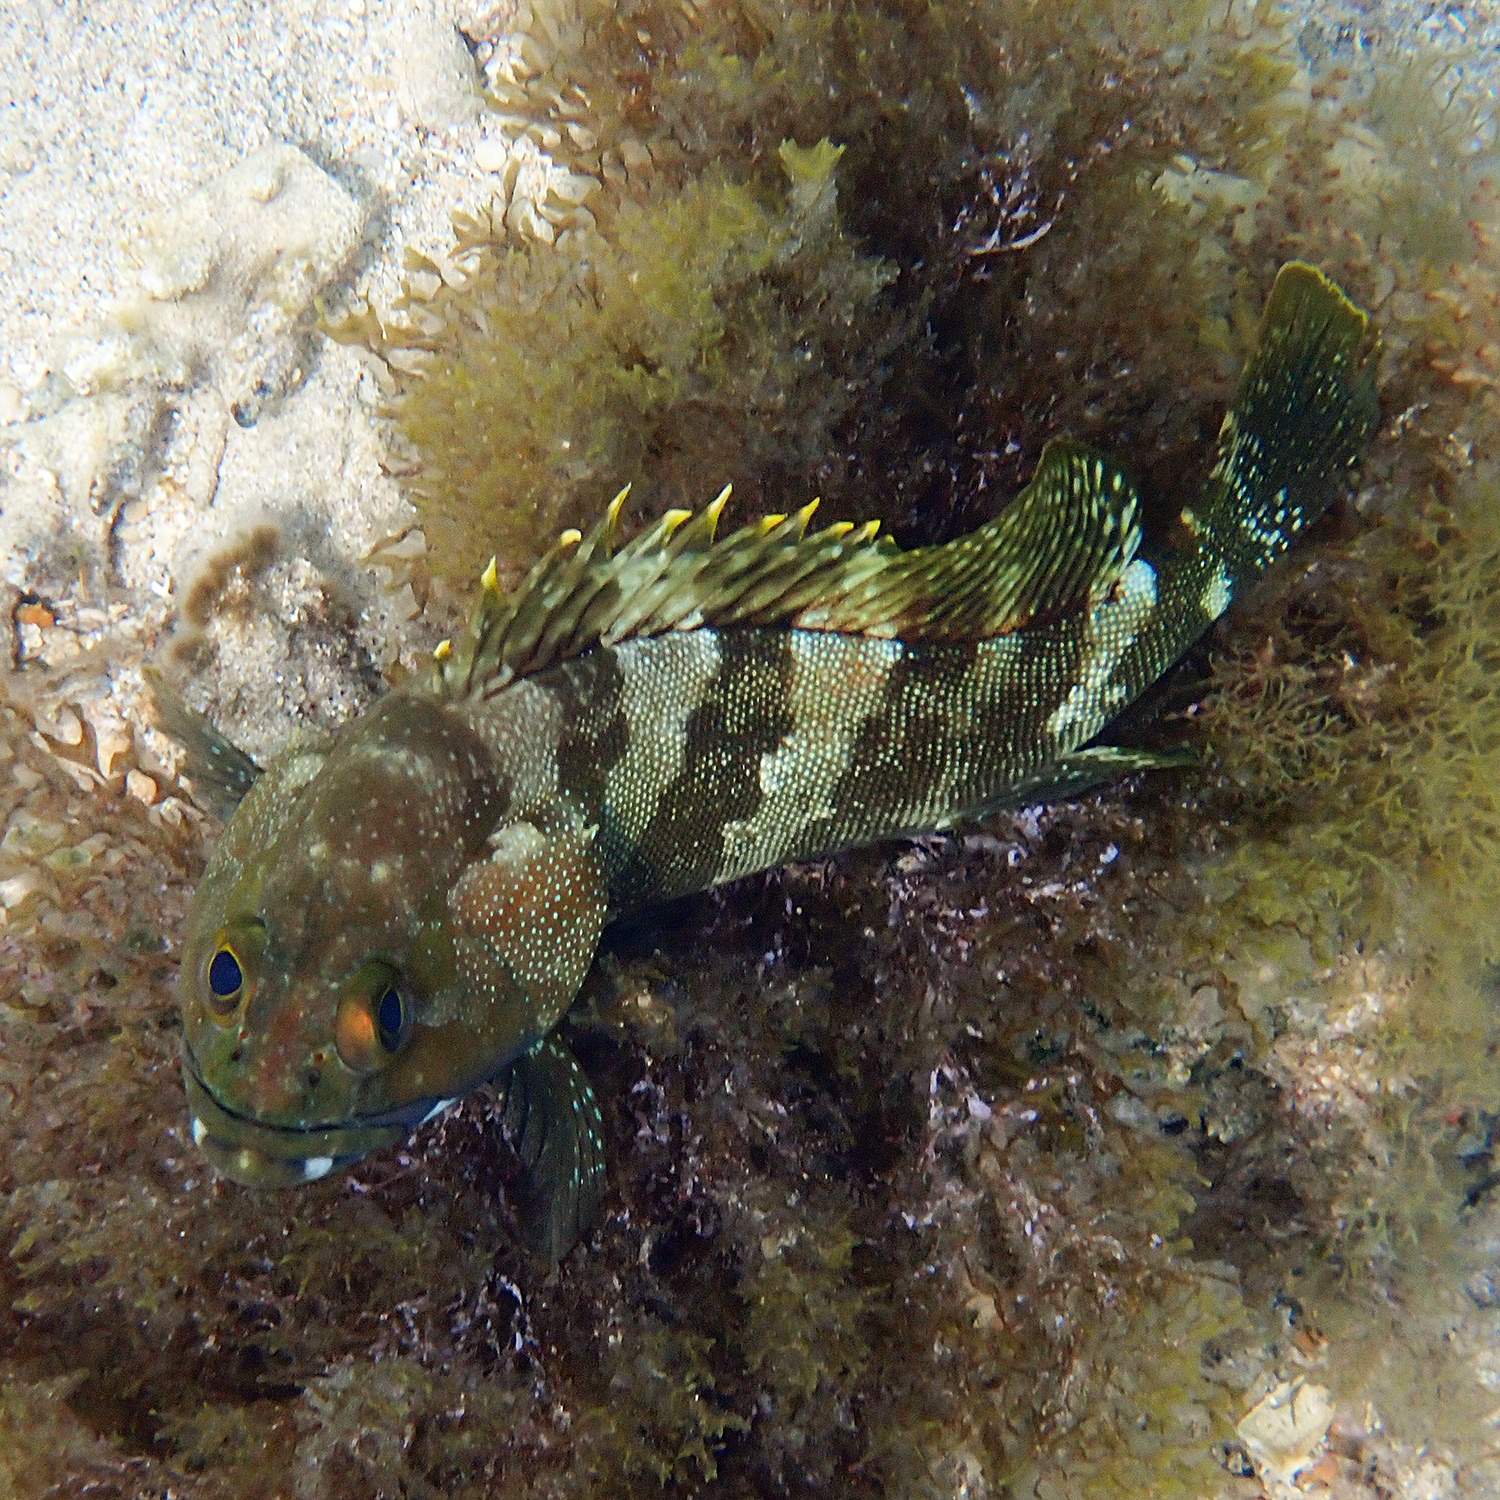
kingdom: Animalia
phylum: Chordata
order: Perciformes
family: Serranidae
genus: Epinephelus
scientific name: Epinephelus rivulatus
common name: Halfmoon grouper
